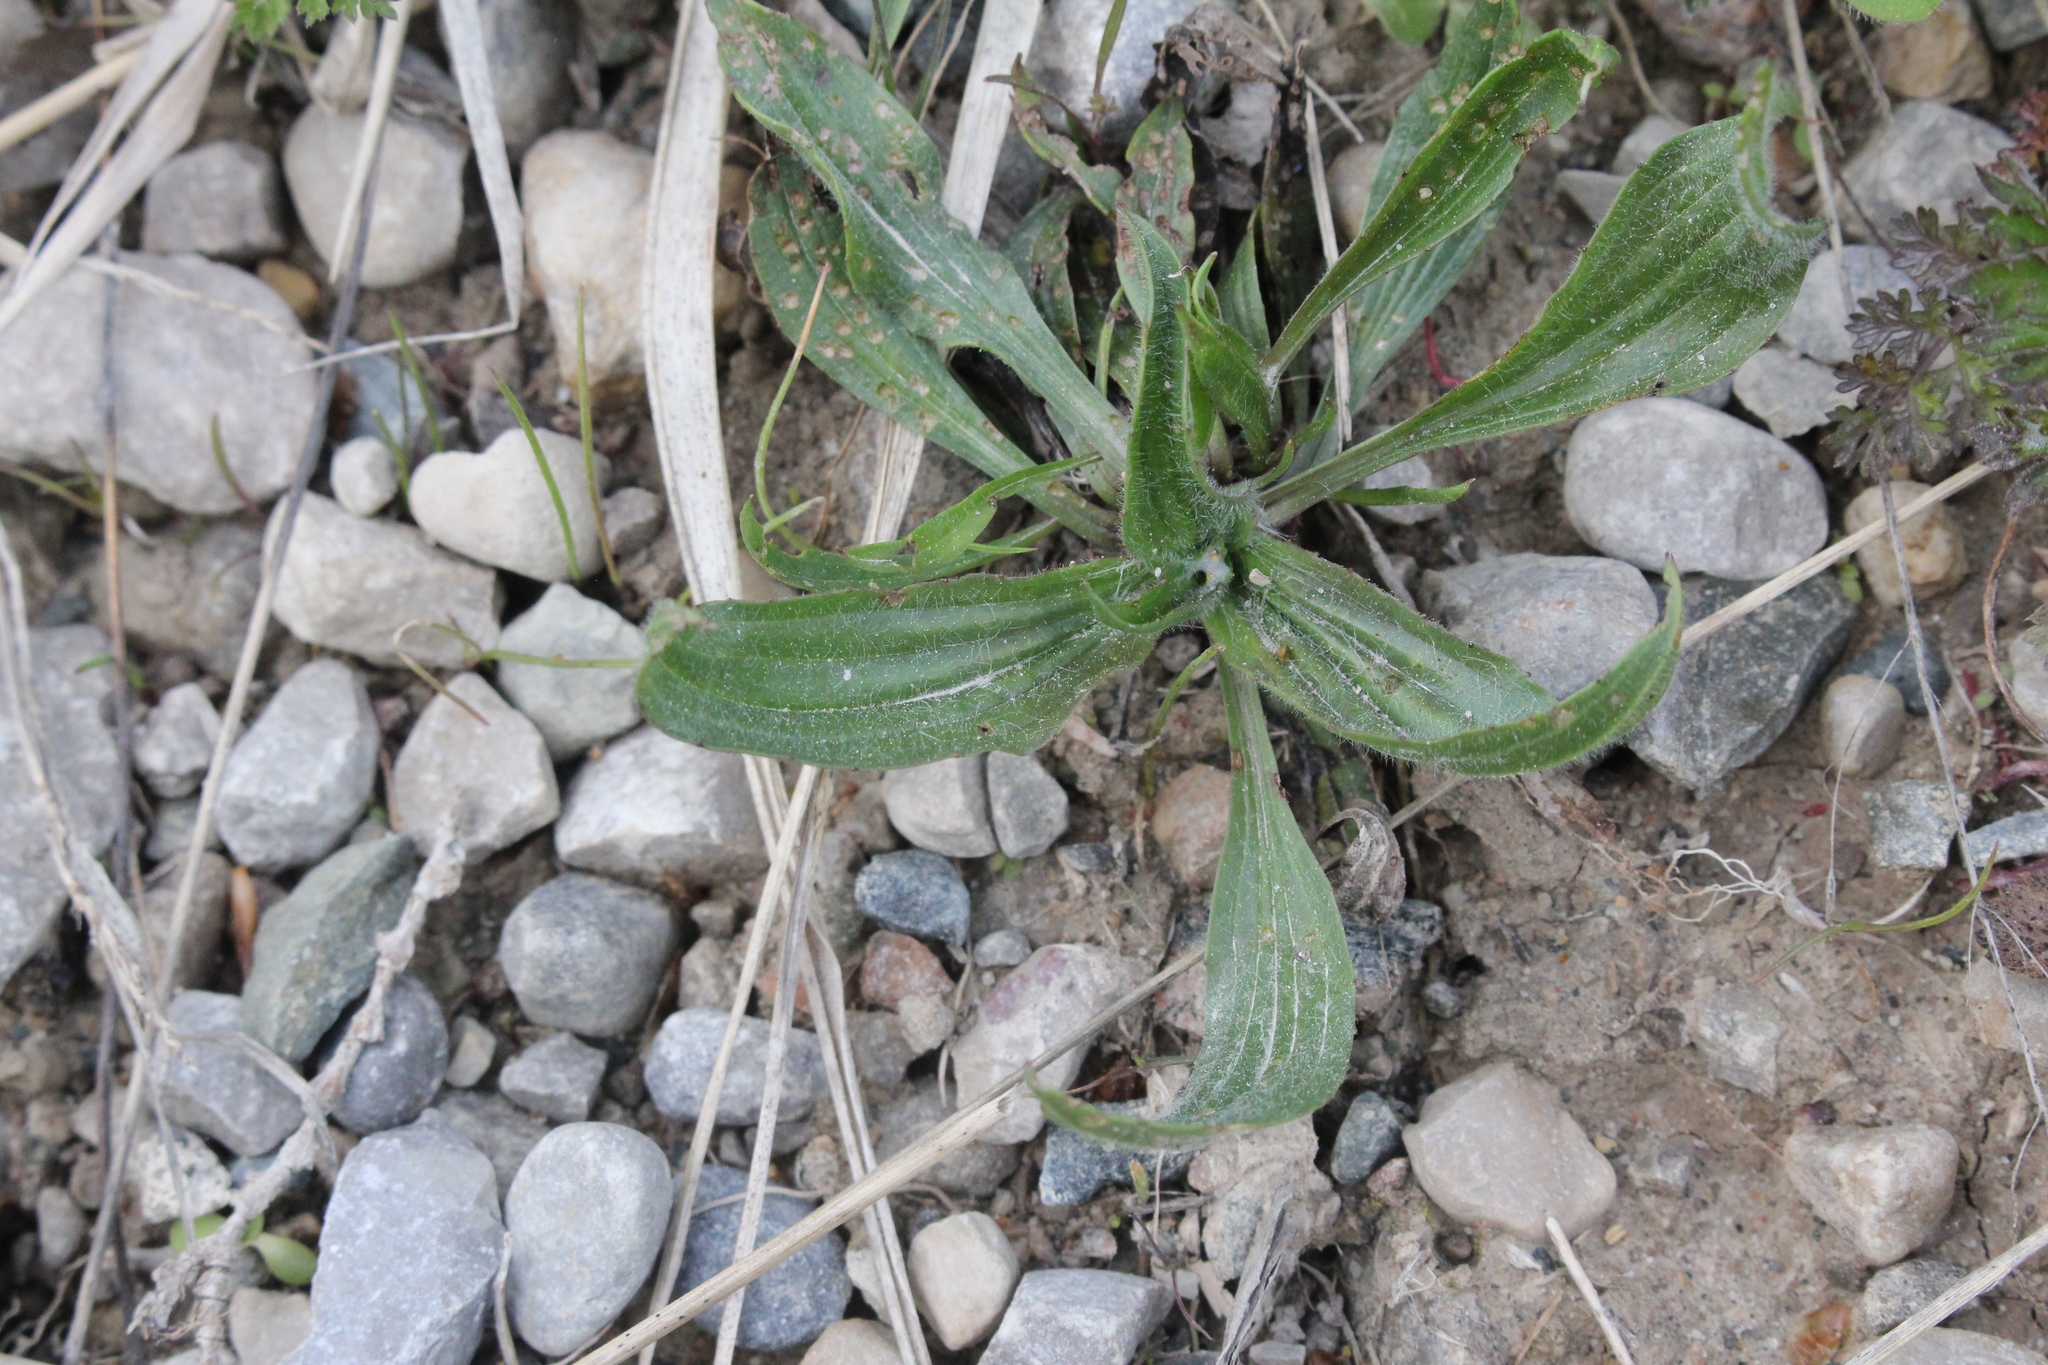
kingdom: Plantae
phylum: Tracheophyta
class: Magnoliopsida
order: Lamiales
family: Plantaginaceae
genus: Plantago
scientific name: Plantago lanceolata
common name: Ribwort plantain
